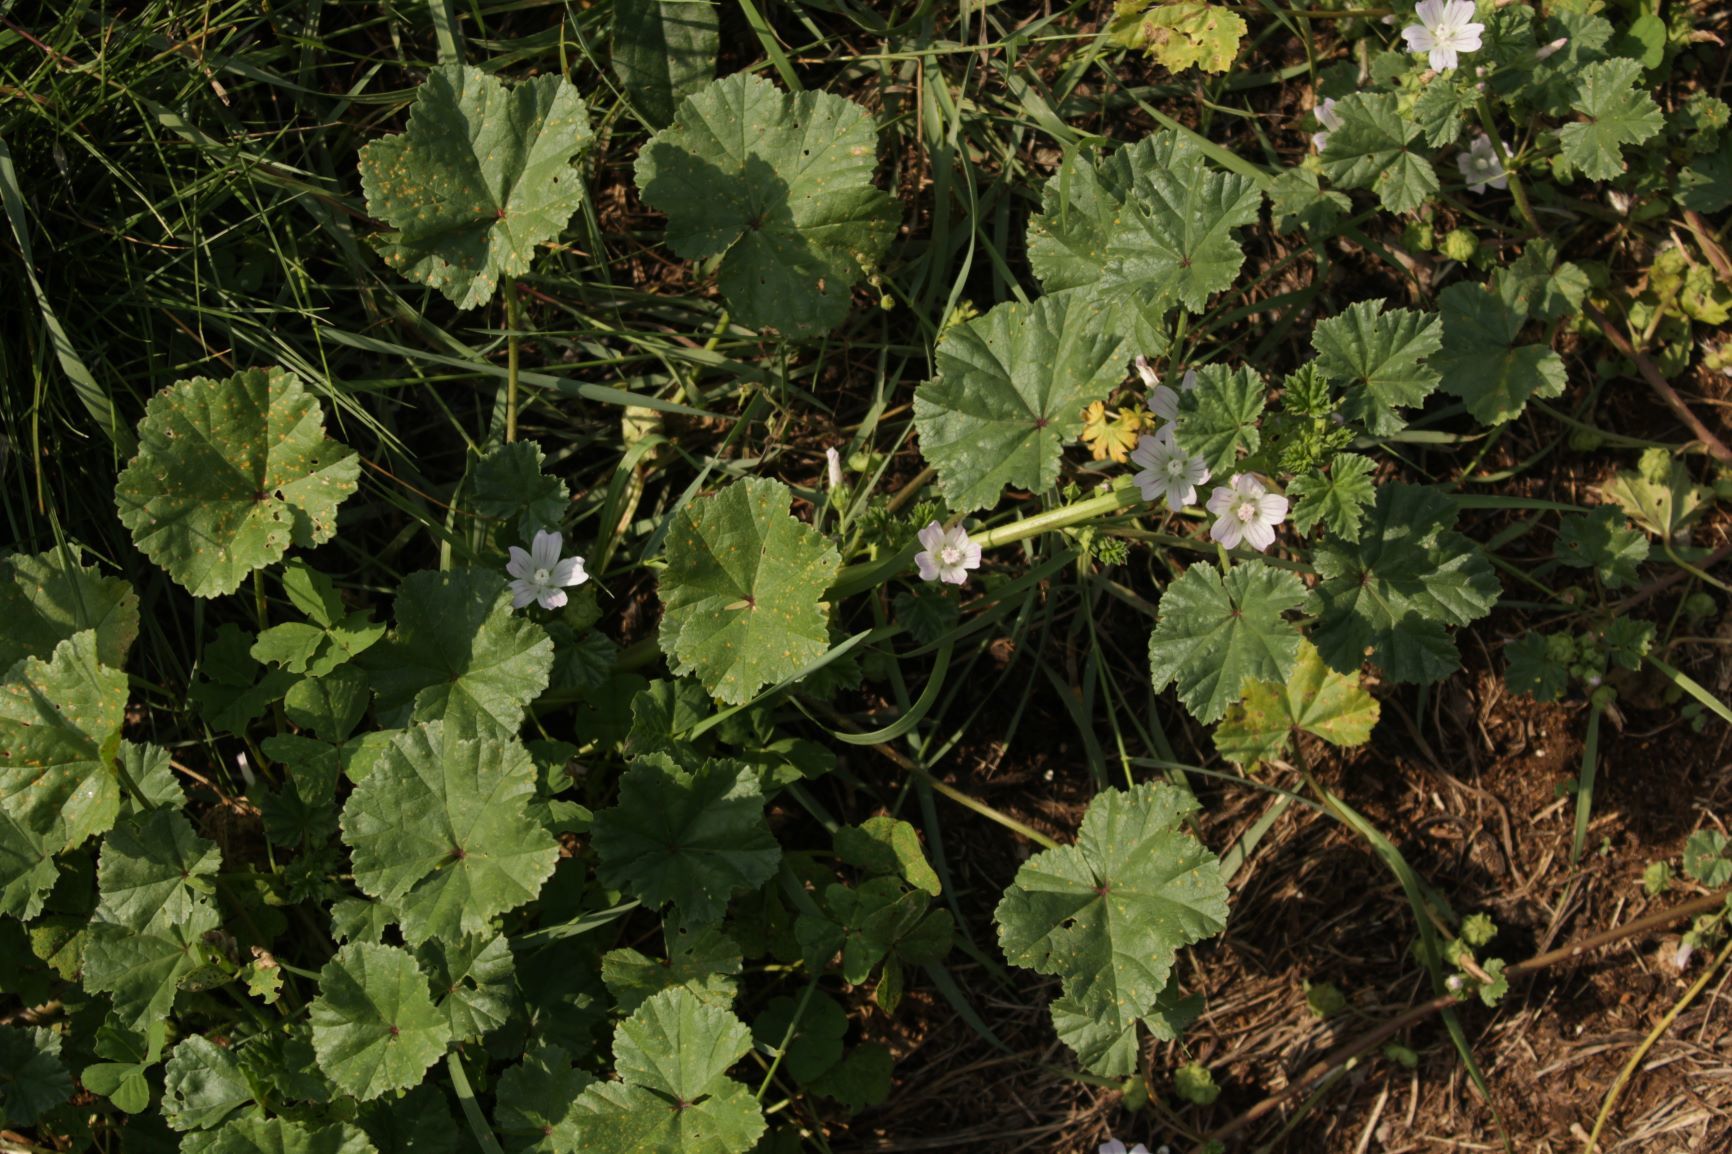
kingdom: Plantae
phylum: Tracheophyta
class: Magnoliopsida
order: Malvales
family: Malvaceae
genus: Malva
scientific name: Malva neglecta
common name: Common mallow
